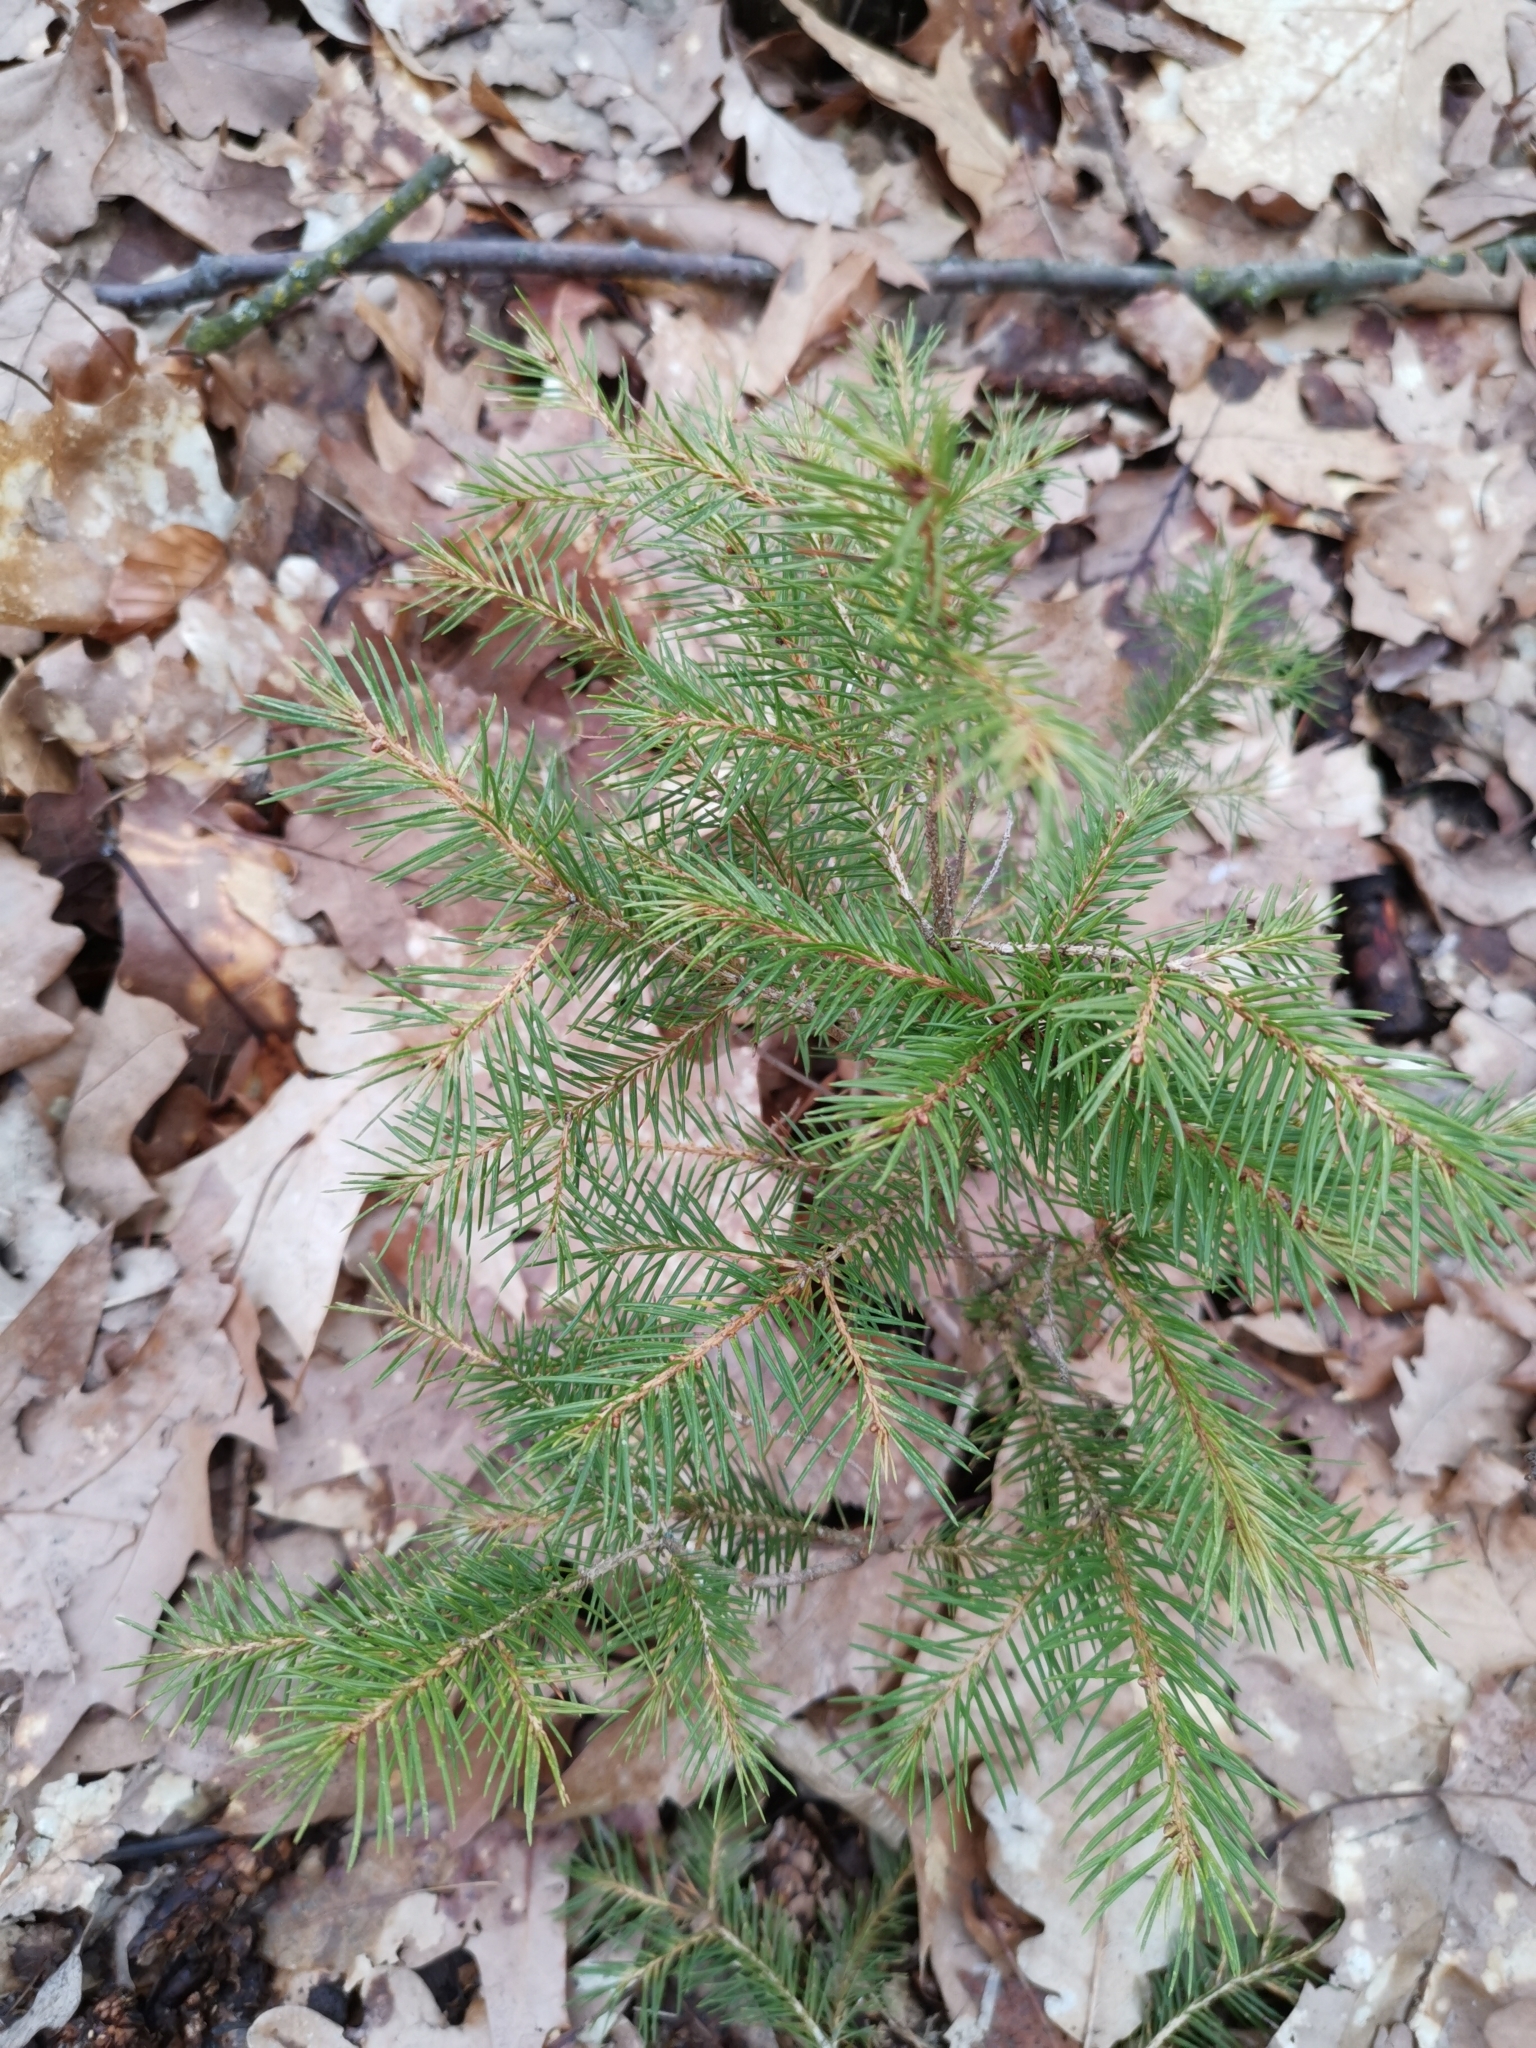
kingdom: Plantae
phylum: Tracheophyta
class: Pinopsida
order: Pinales
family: Pinaceae
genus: Picea
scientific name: Picea abies
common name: Norway spruce
